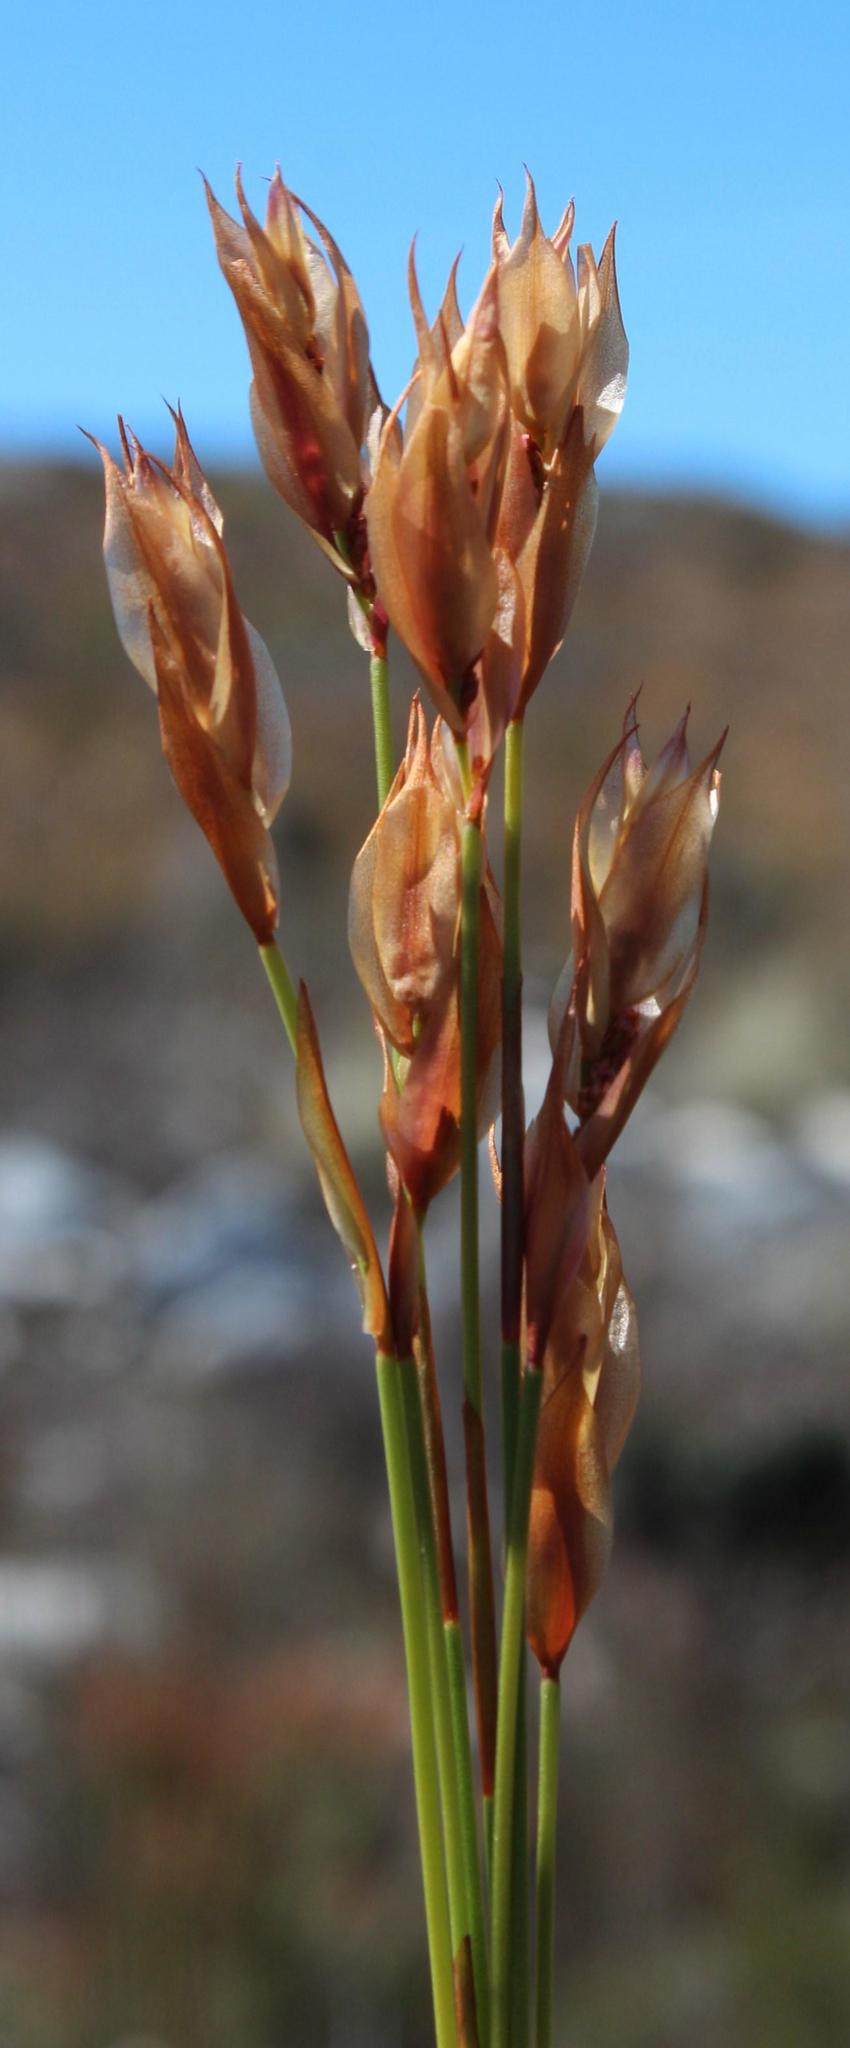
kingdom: Plantae
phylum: Tracheophyta
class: Liliopsida
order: Poales
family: Restionaceae
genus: Elegia
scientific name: Elegia filacea
